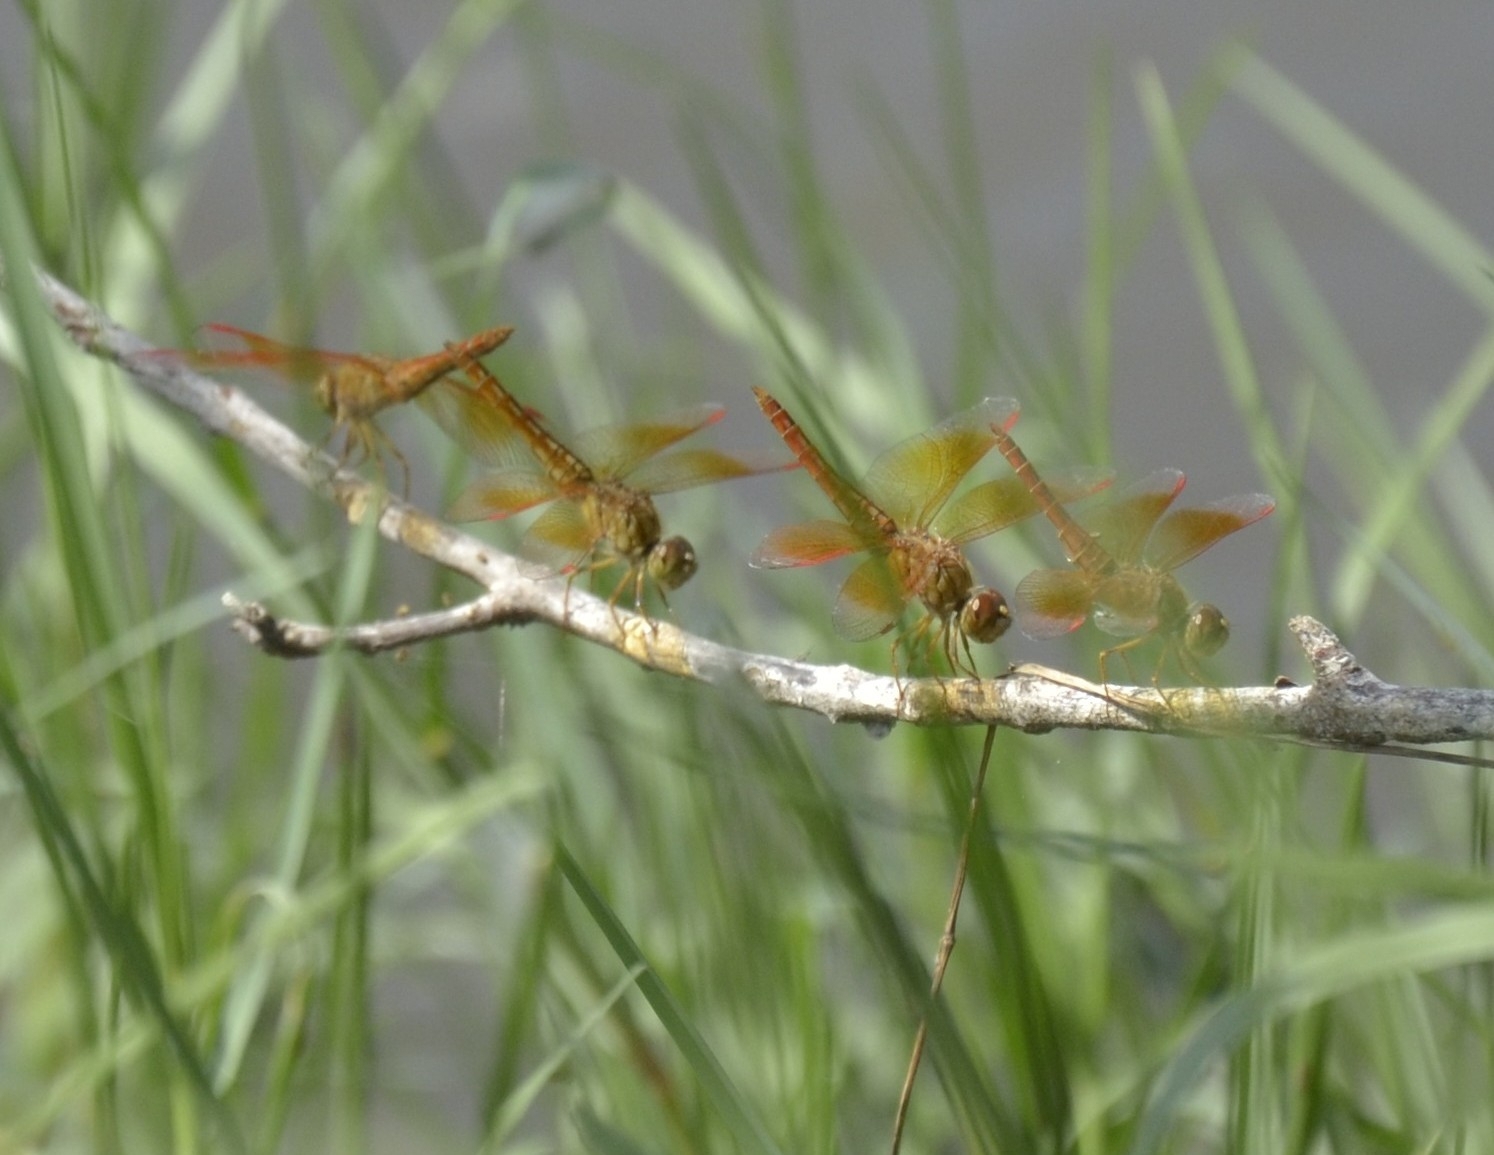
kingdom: Animalia
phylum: Arthropoda
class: Insecta
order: Odonata
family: Libellulidae
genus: Brachythemis
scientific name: Brachythemis contaminata
